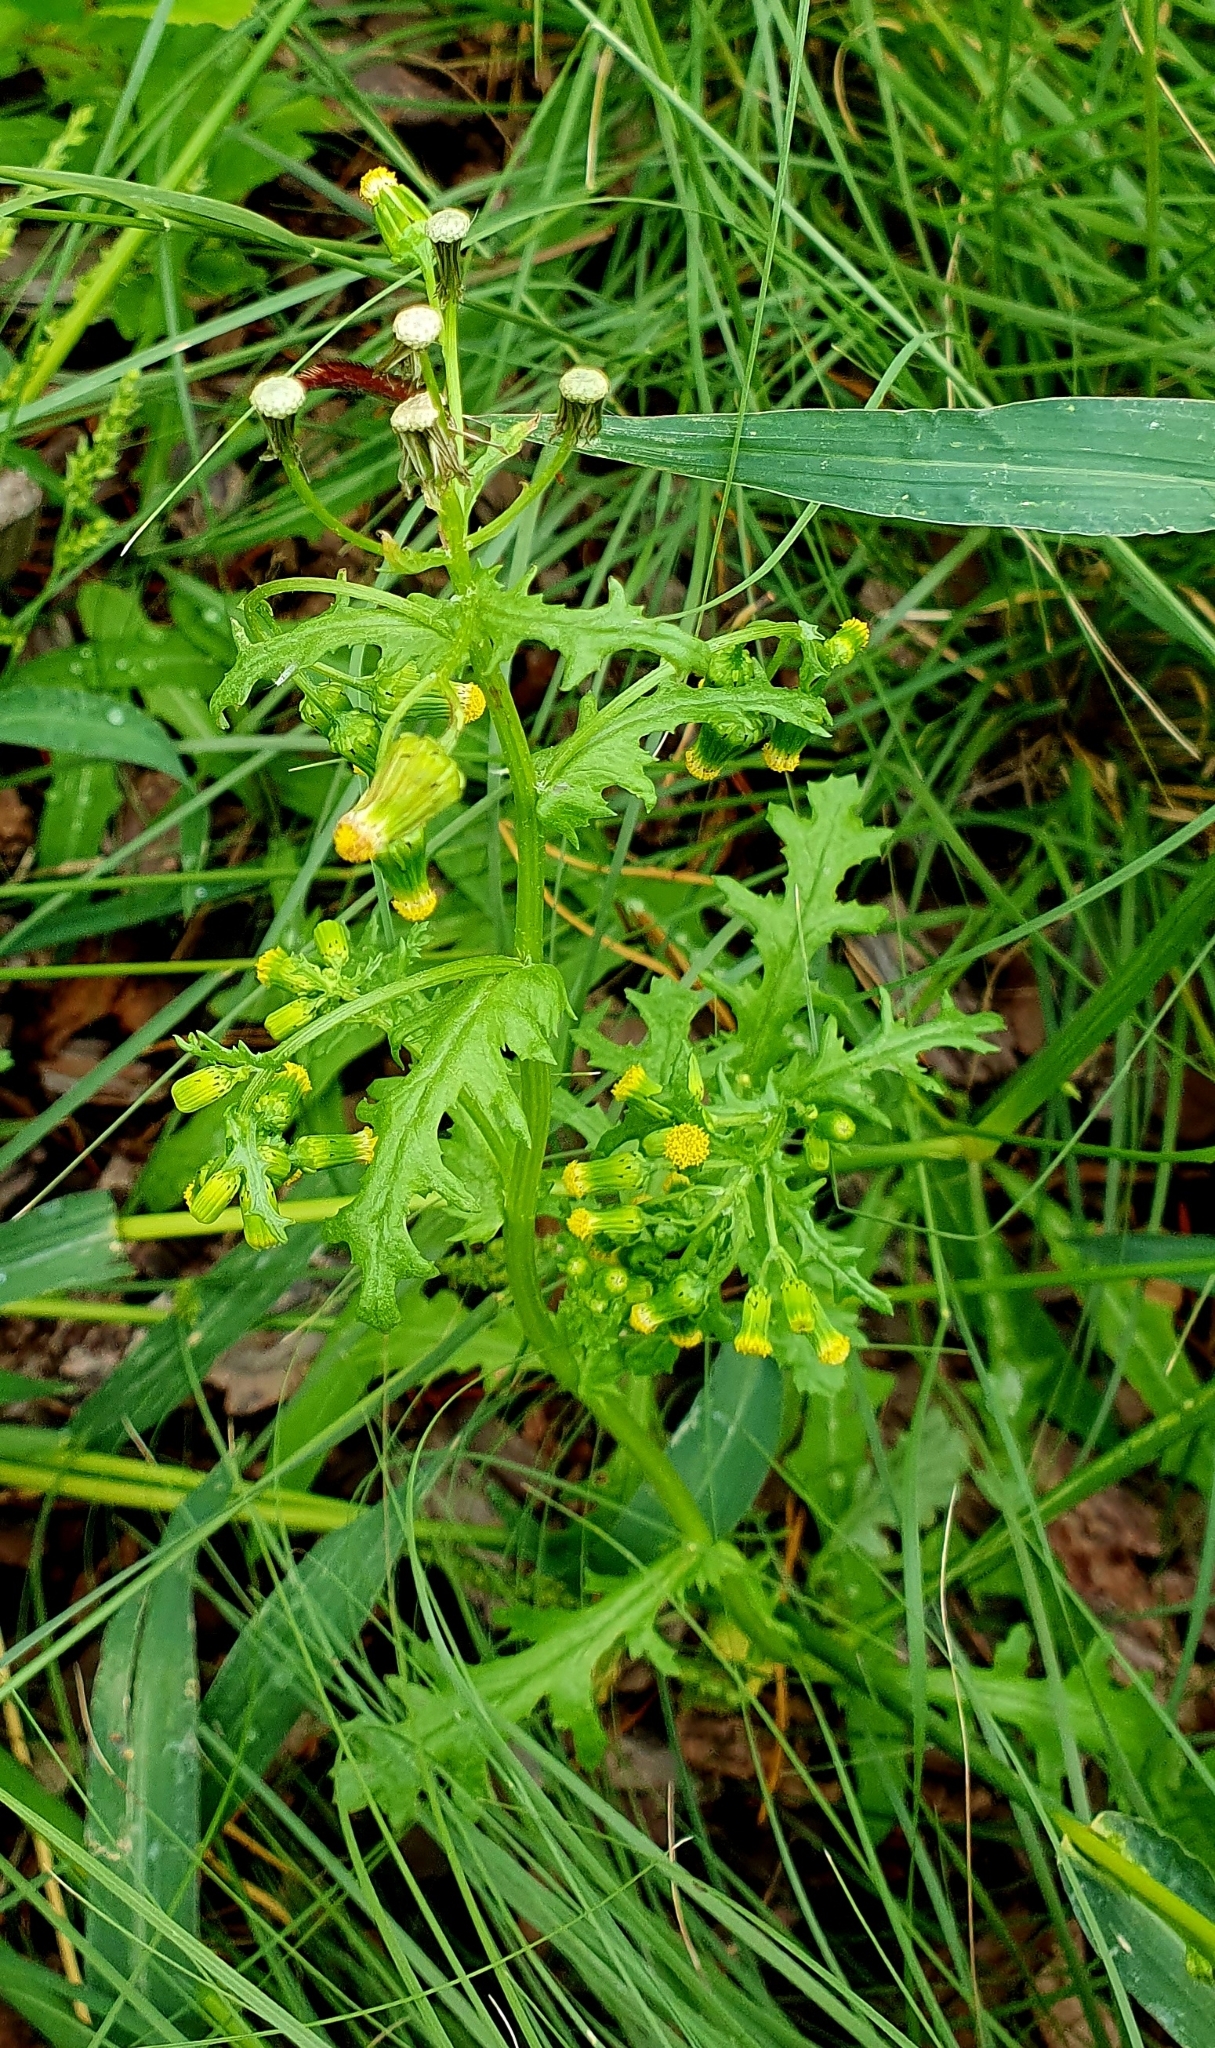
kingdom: Plantae
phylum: Tracheophyta
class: Magnoliopsida
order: Asterales
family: Asteraceae
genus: Senecio
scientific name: Senecio vulgaris
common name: Old-man-in-the-spring
